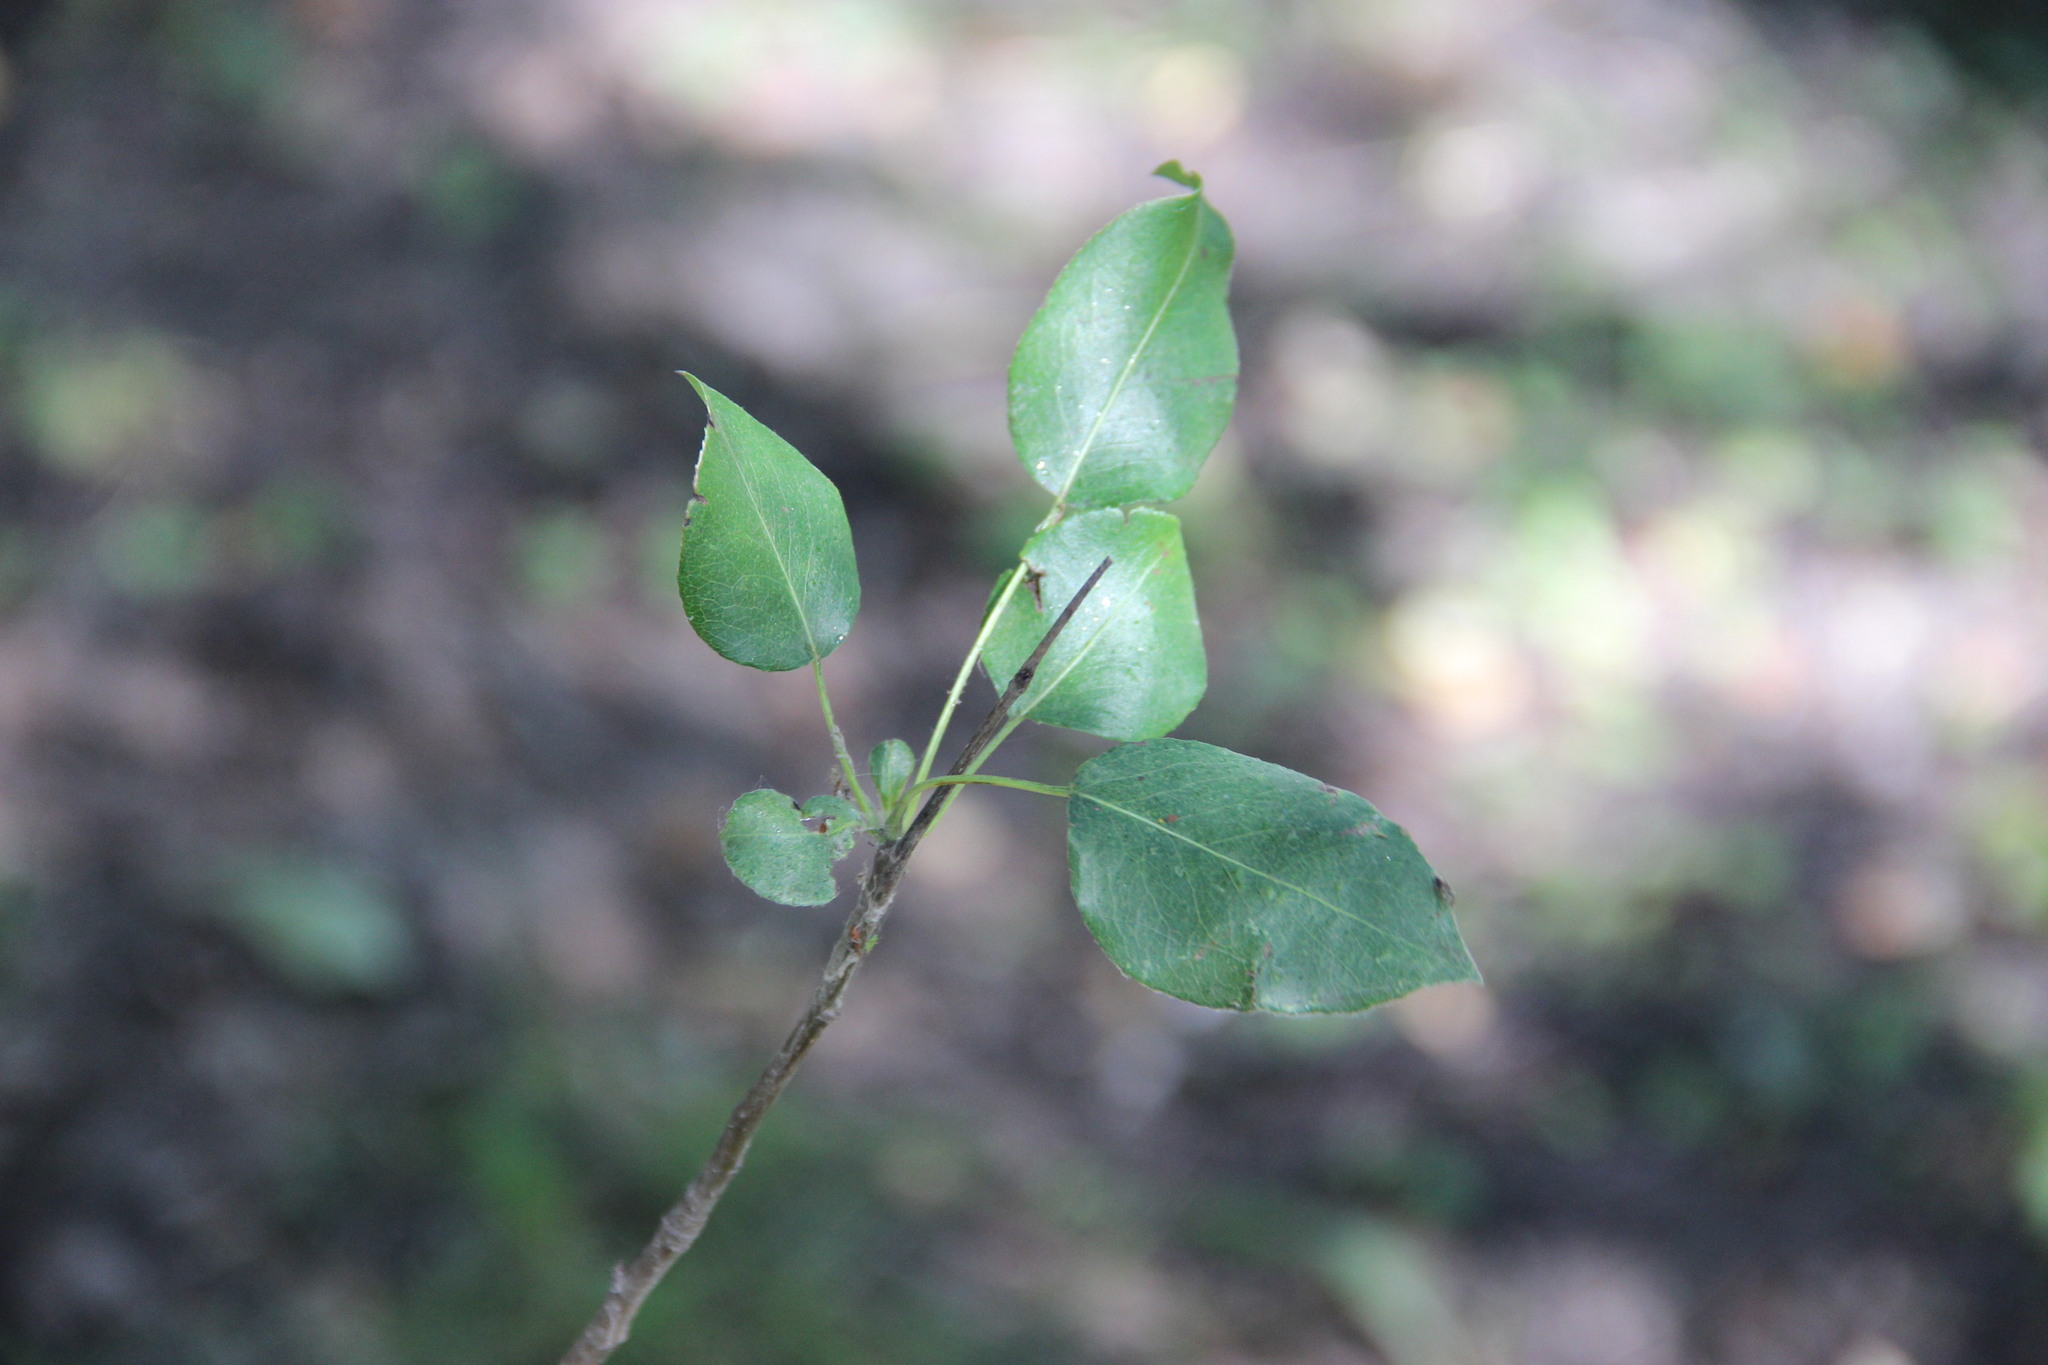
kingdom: Plantae
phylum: Tracheophyta
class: Magnoliopsida
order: Rosales
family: Rosaceae
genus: Pyrus
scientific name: Pyrus communis
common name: Pear
